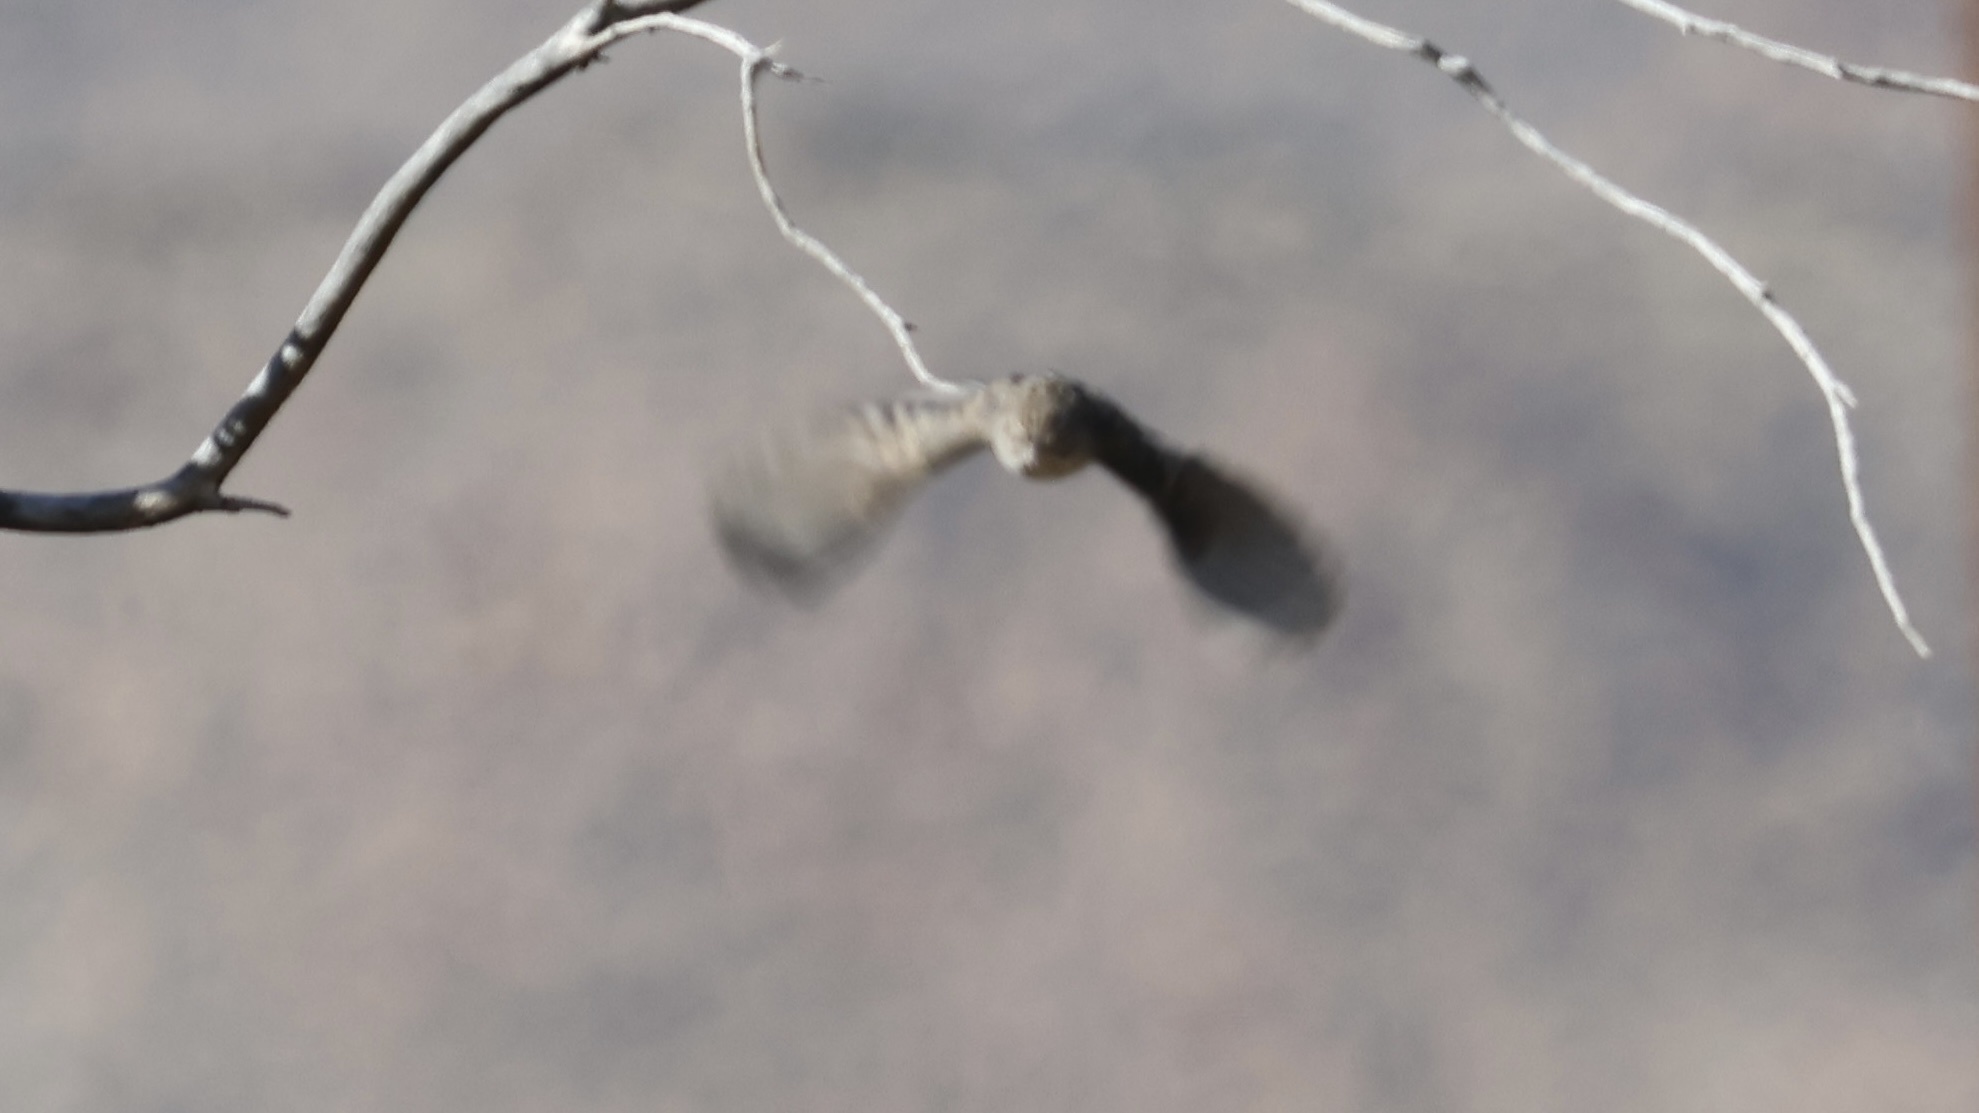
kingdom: Animalia
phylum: Chordata
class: Aves
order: Passeriformes
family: Passerellidae
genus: Spizella
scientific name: Spizella breweri
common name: Brewer's sparrow
